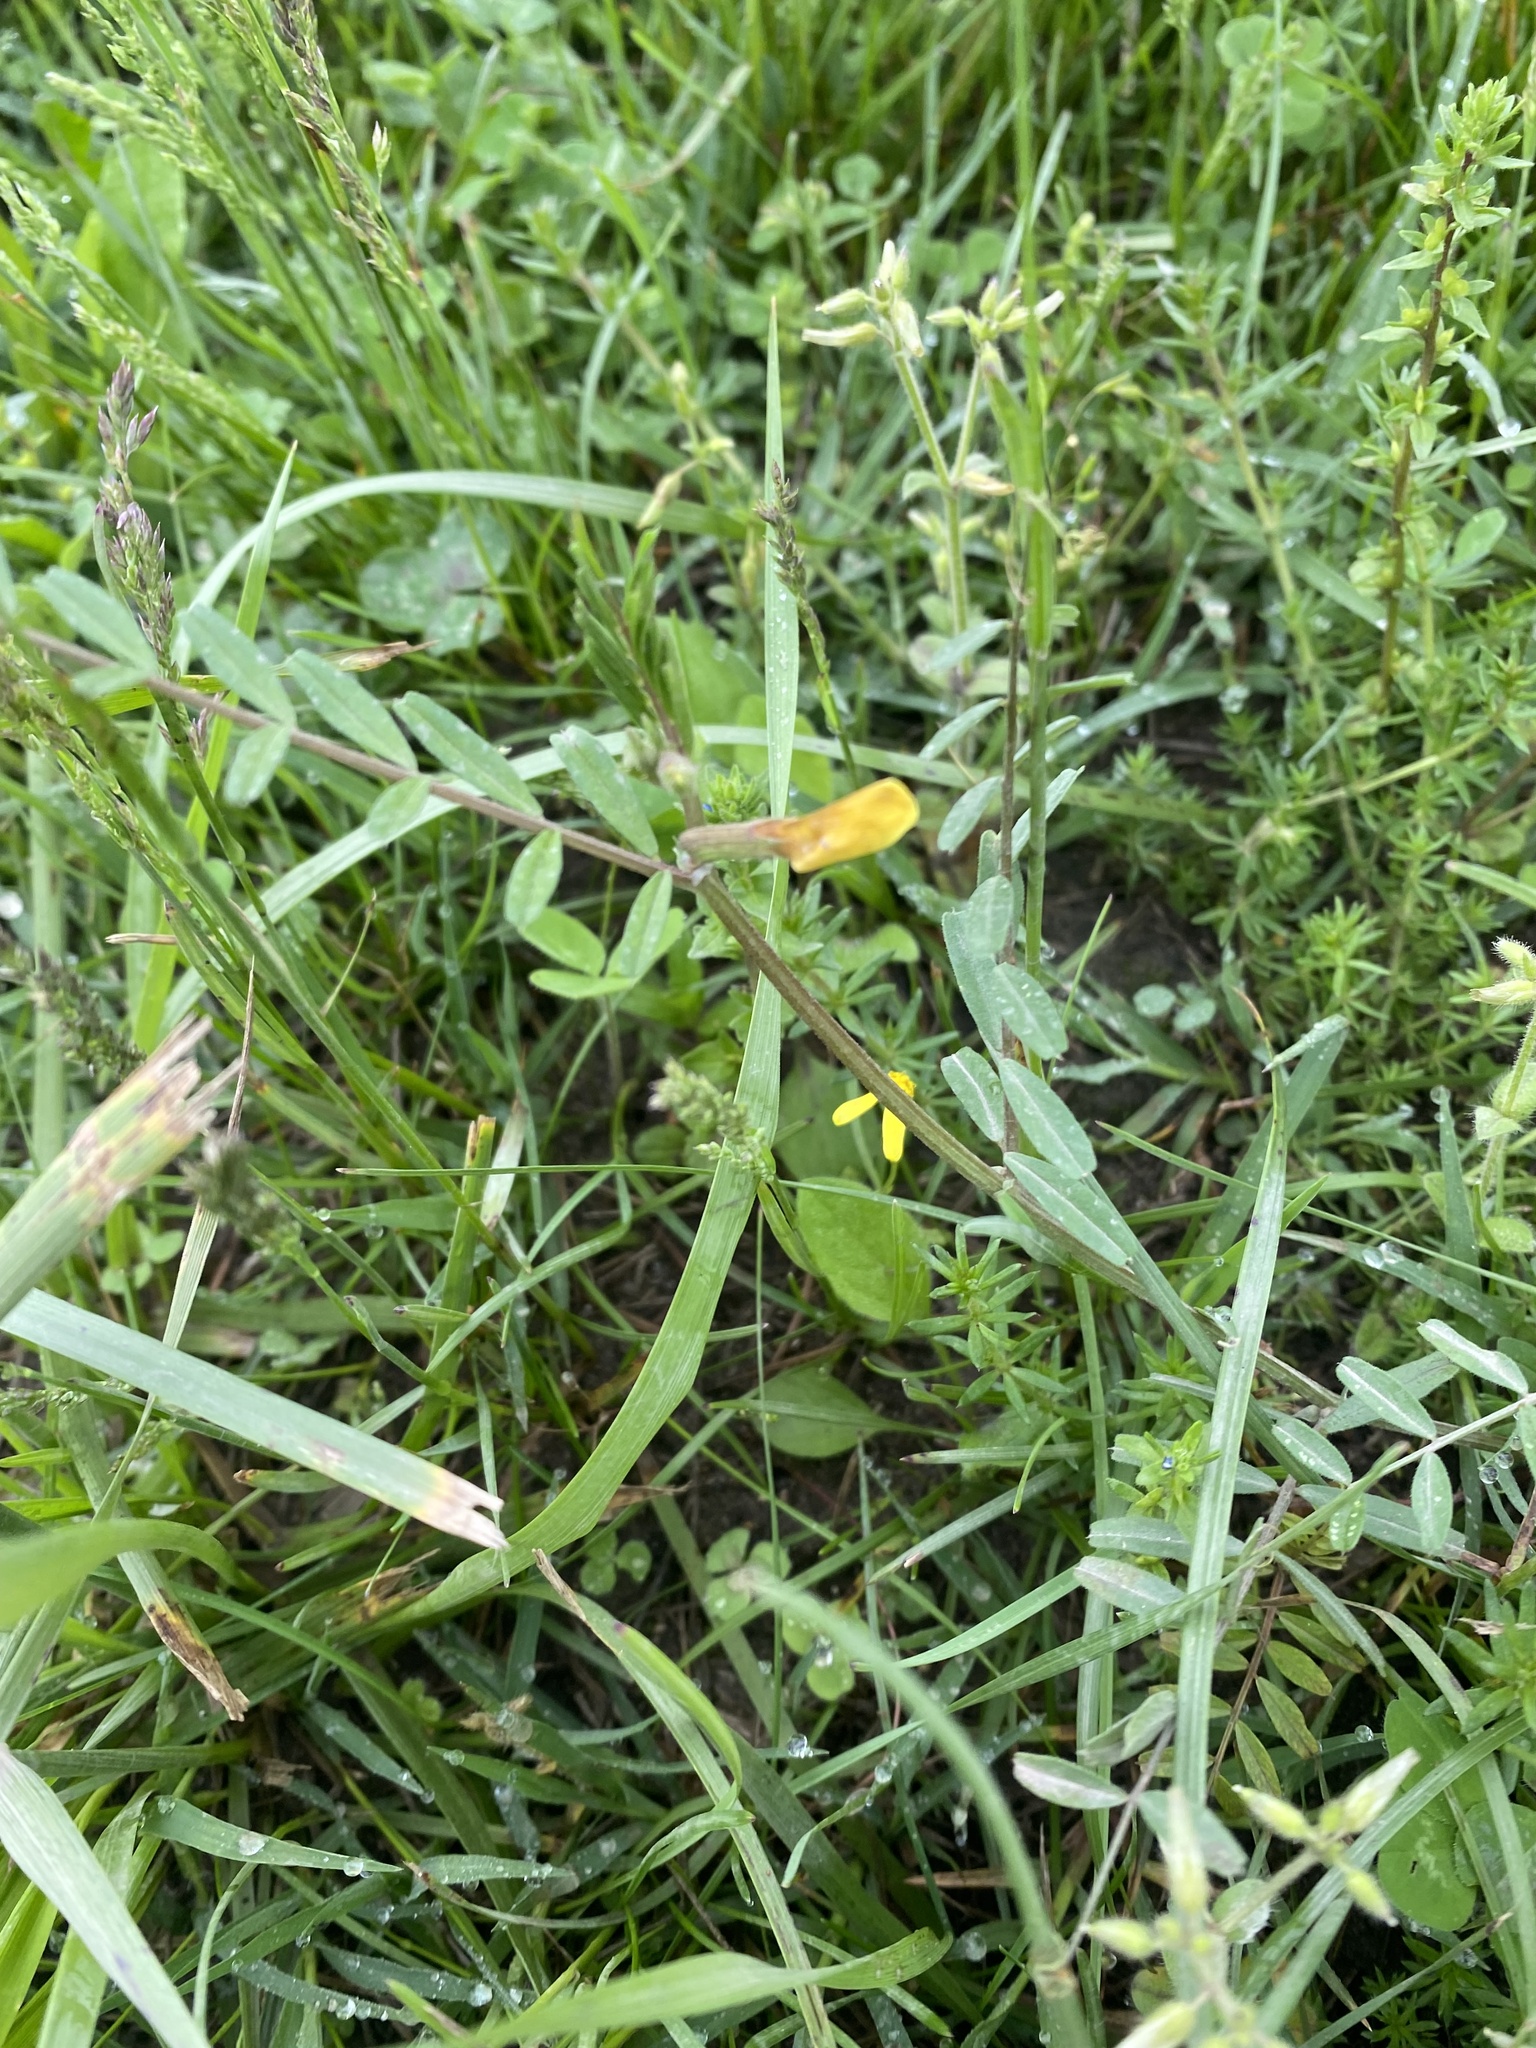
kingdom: Plantae
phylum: Tracheophyta
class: Magnoliopsida
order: Fabales
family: Fabaceae
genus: Vicia
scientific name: Vicia grandiflora
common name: Large yellow vetch
